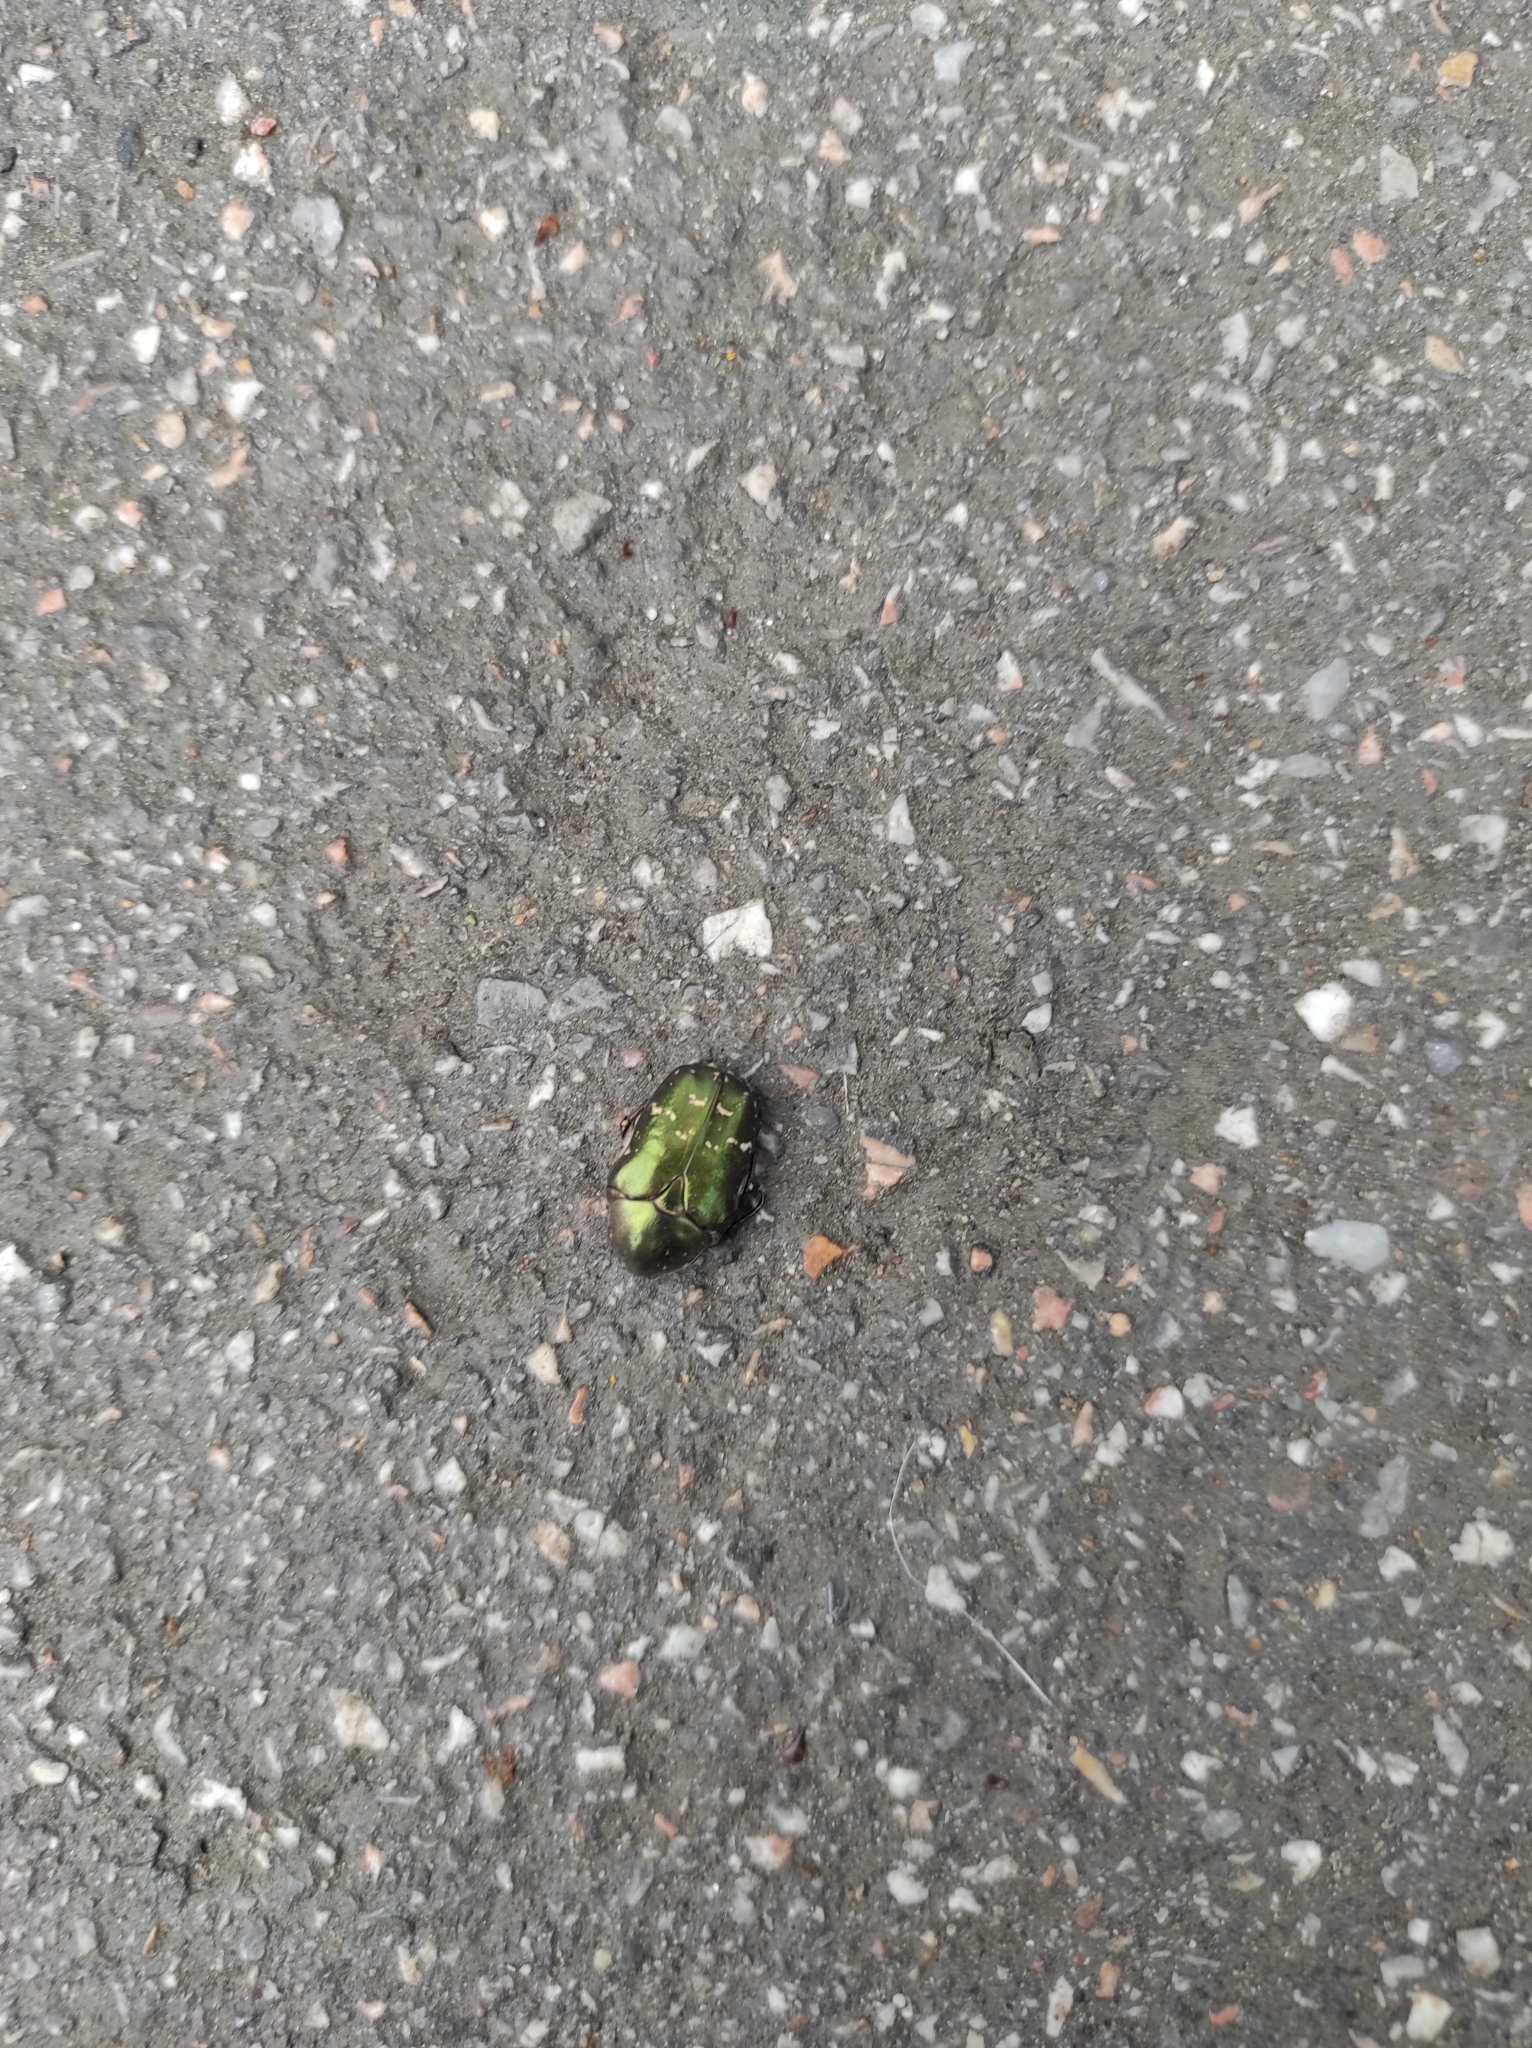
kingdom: Animalia
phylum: Arthropoda
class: Insecta
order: Coleoptera
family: Scarabaeidae
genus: Cetonia
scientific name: Cetonia aurata
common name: Rose chafer
